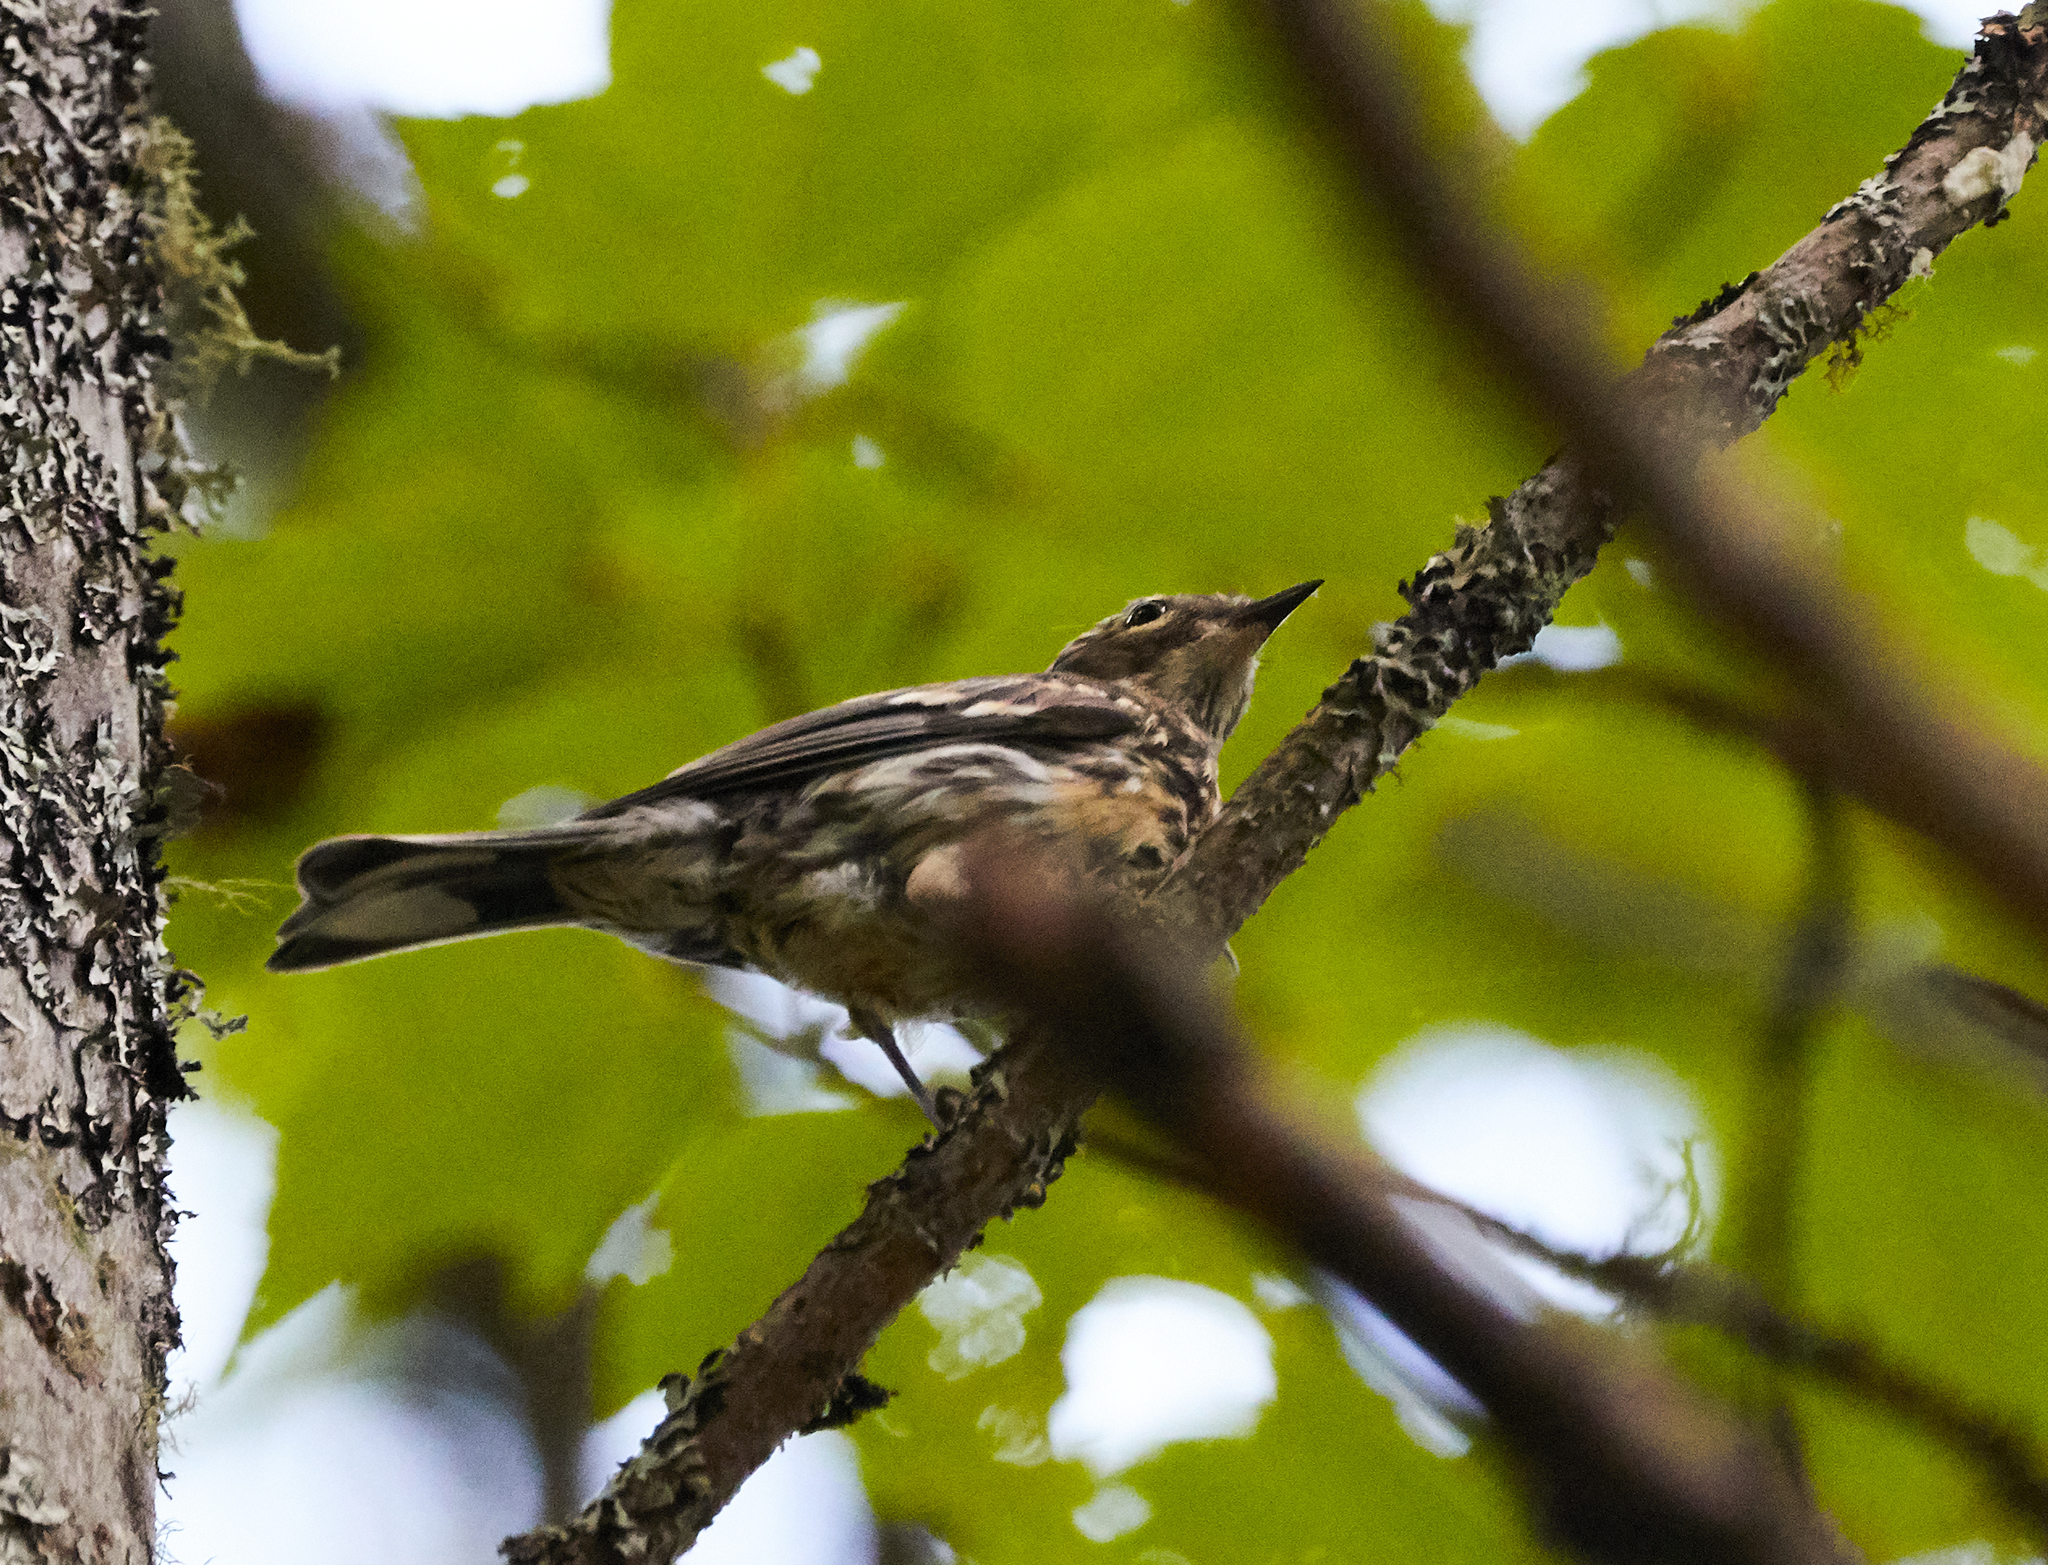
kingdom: Animalia
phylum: Chordata
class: Aves
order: Passeriformes
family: Parulidae
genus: Setophaga
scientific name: Setophaga coronata
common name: Myrtle warbler
